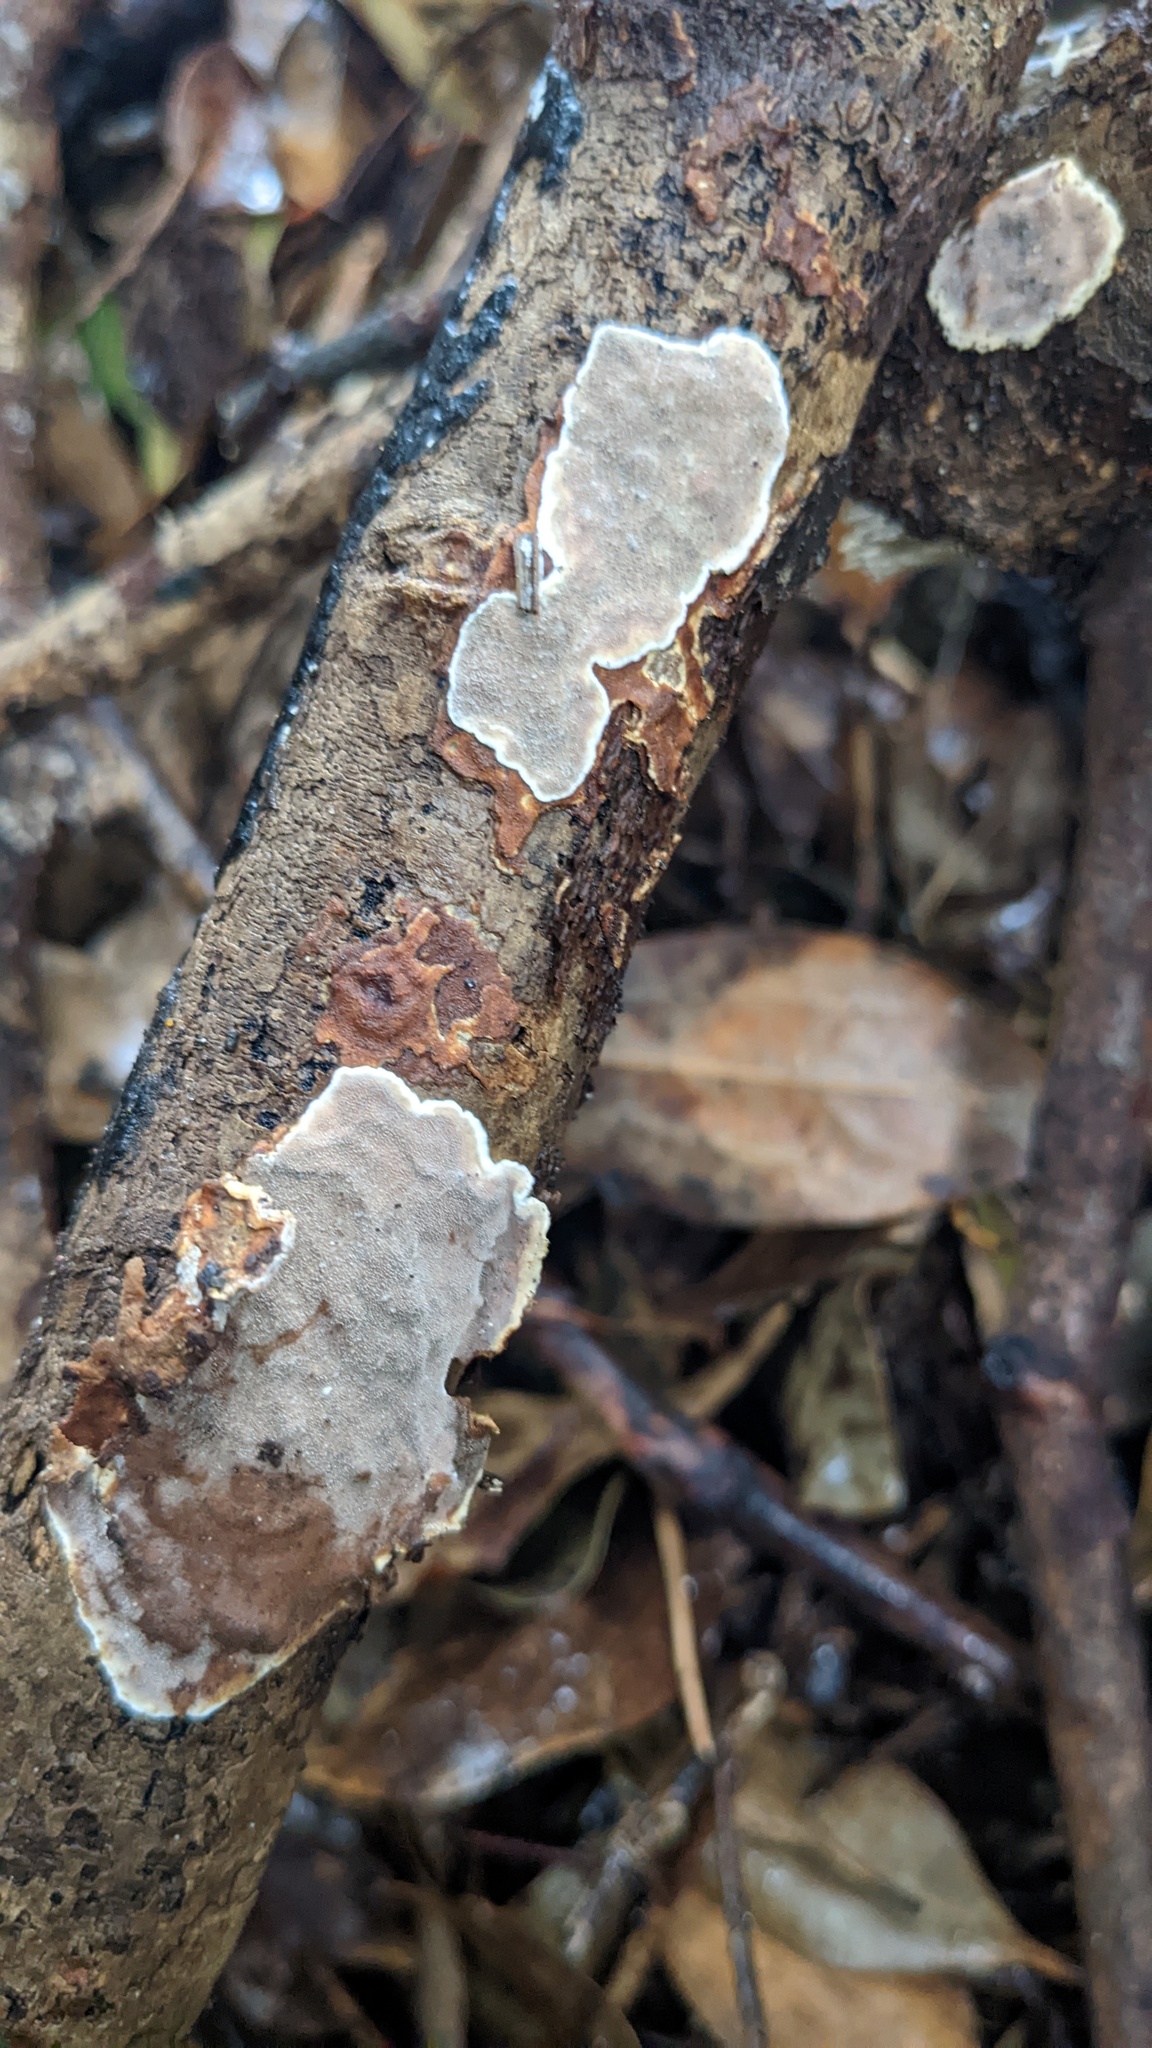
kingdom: Fungi
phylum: Basidiomycota
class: Agaricomycetes
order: Auriculariales
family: Auriculariaceae
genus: Heterochaete
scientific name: Heterochaete delicata
